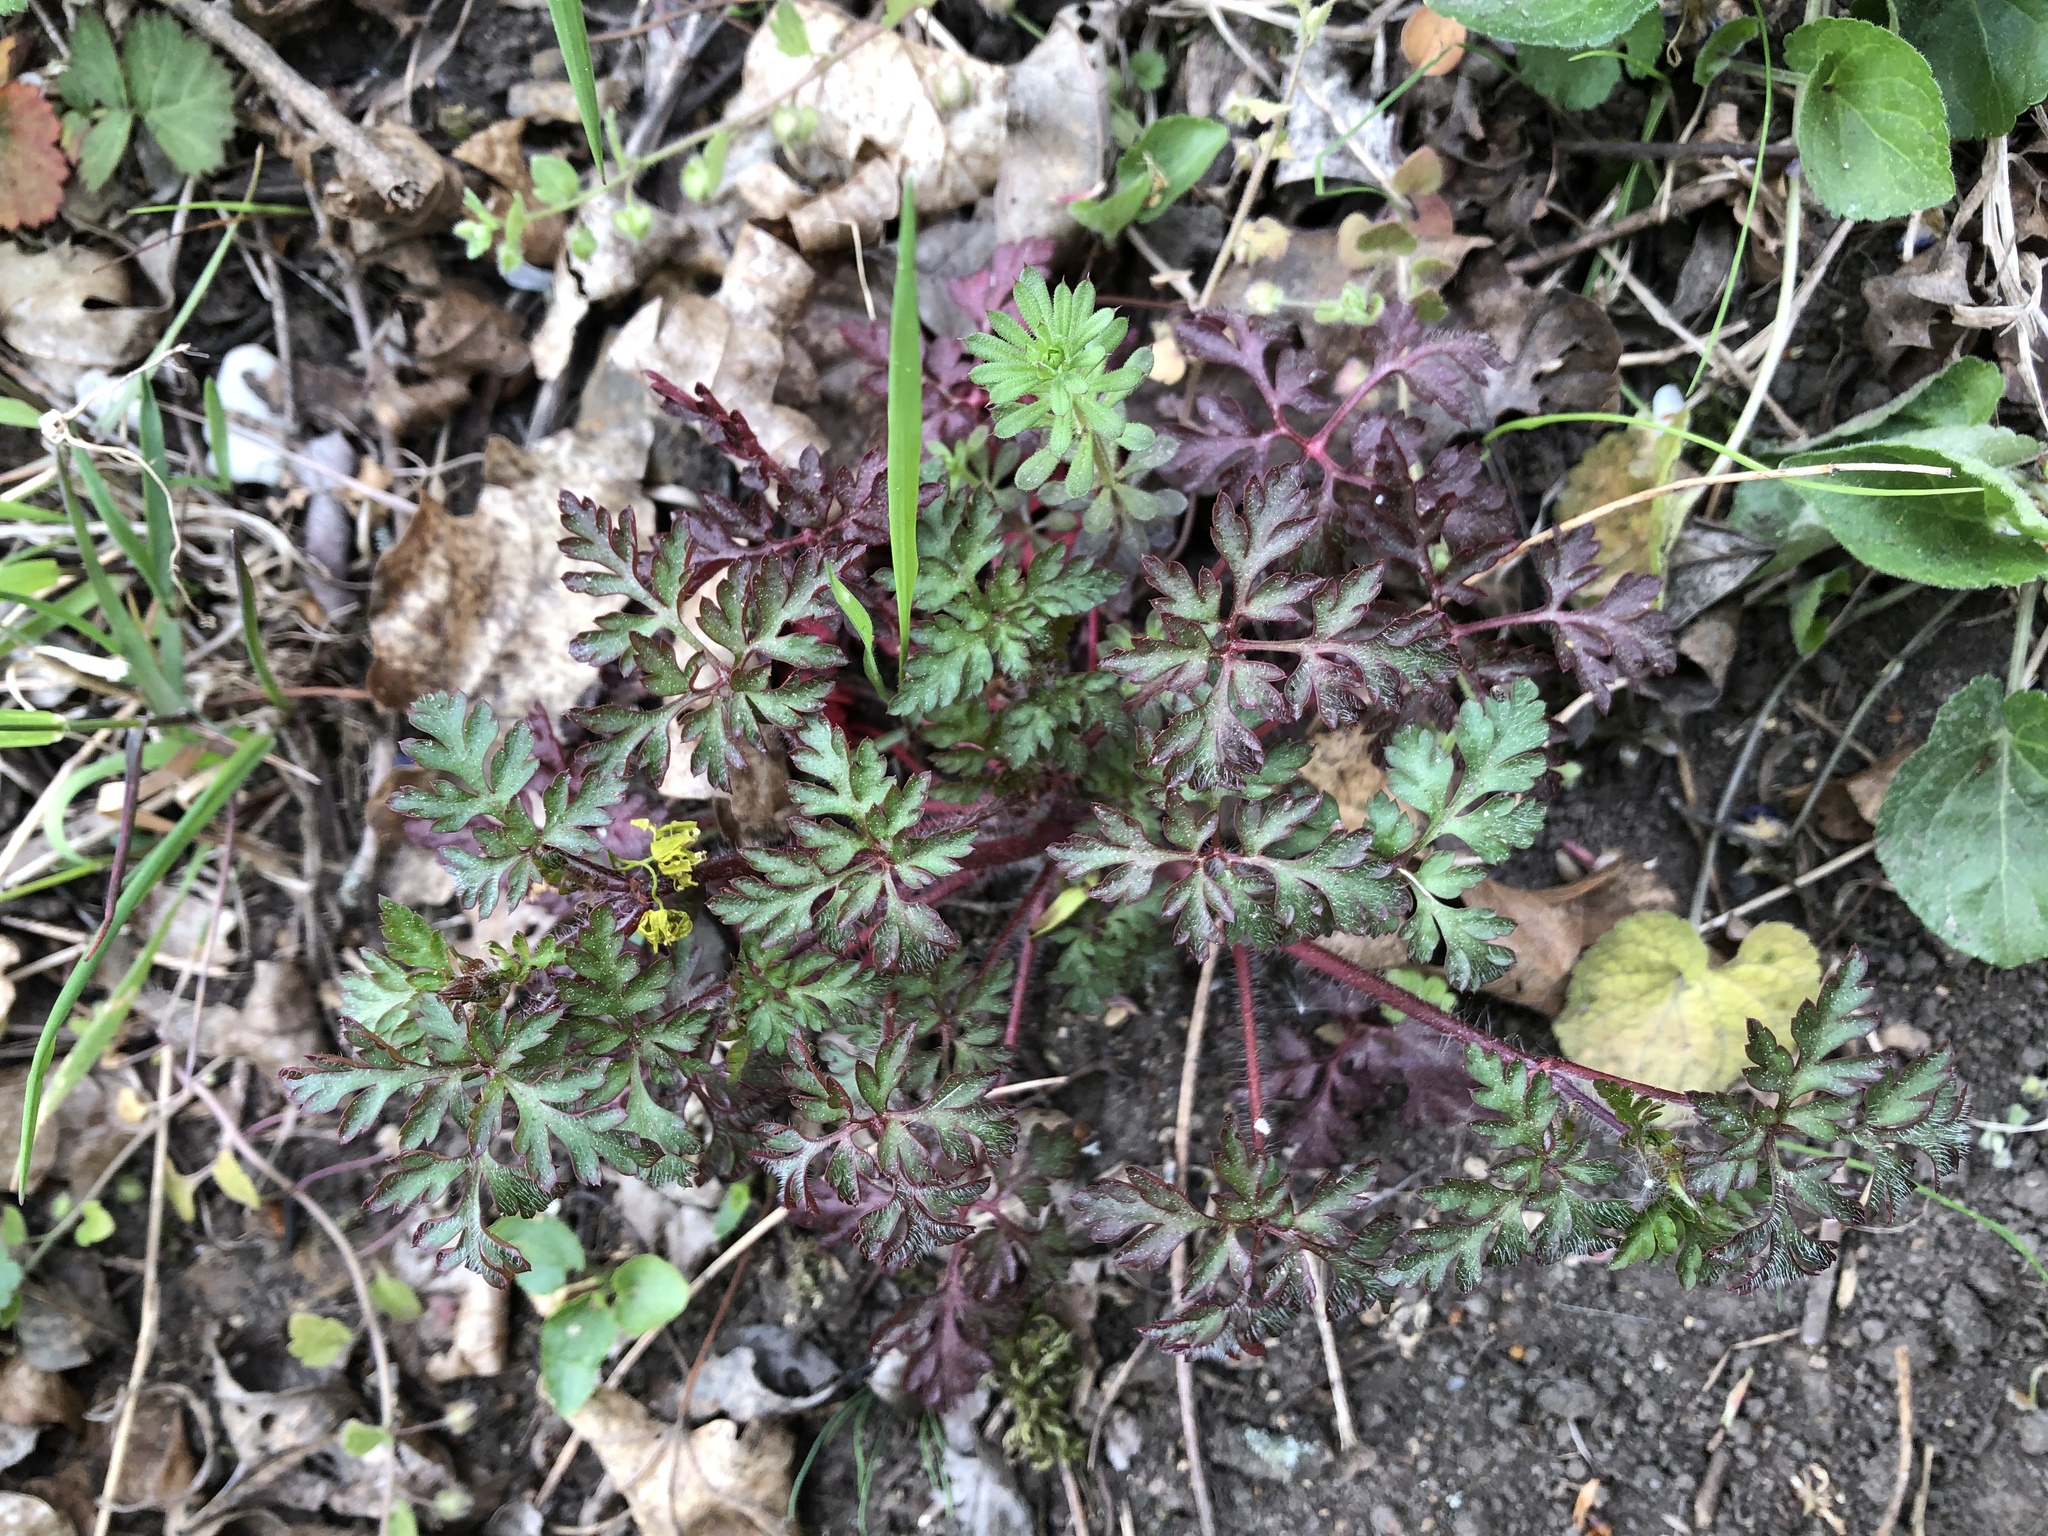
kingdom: Plantae
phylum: Tracheophyta
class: Magnoliopsida
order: Geraniales
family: Geraniaceae
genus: Geranium
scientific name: Geranium robertianum
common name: Herb-robert
